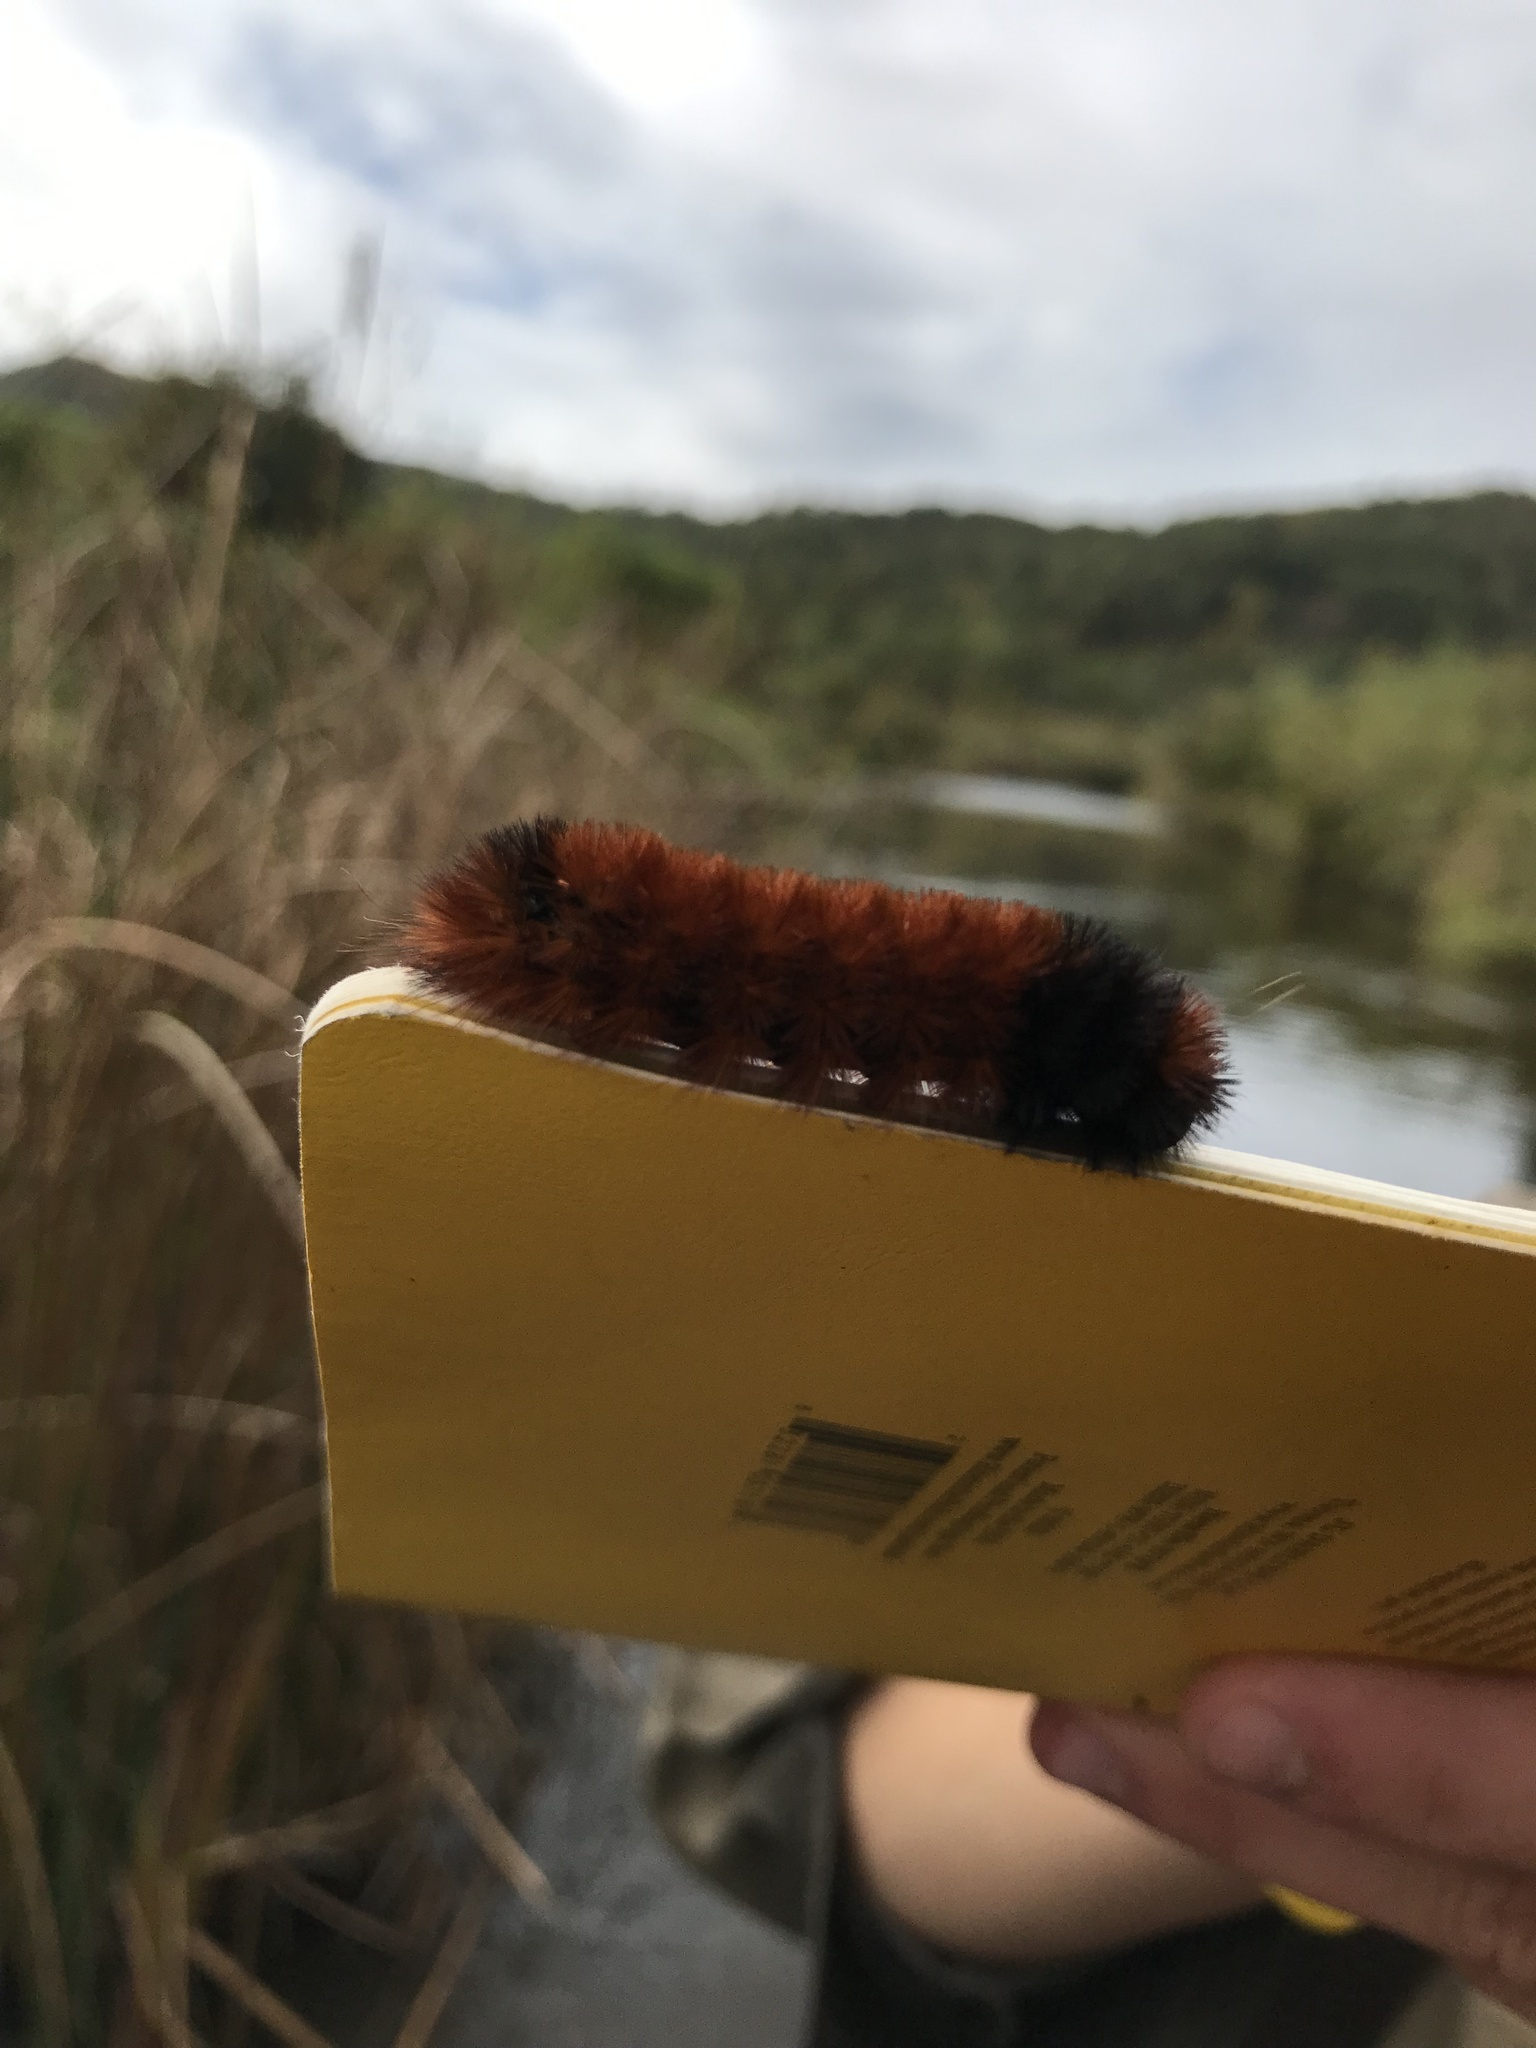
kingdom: Animalia
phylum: Arthropoda
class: Insecta
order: Lepidoptera
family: Erebidae
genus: Pyrrharctia
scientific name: Pyrrharctia isabella
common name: Isabella tiger moth
